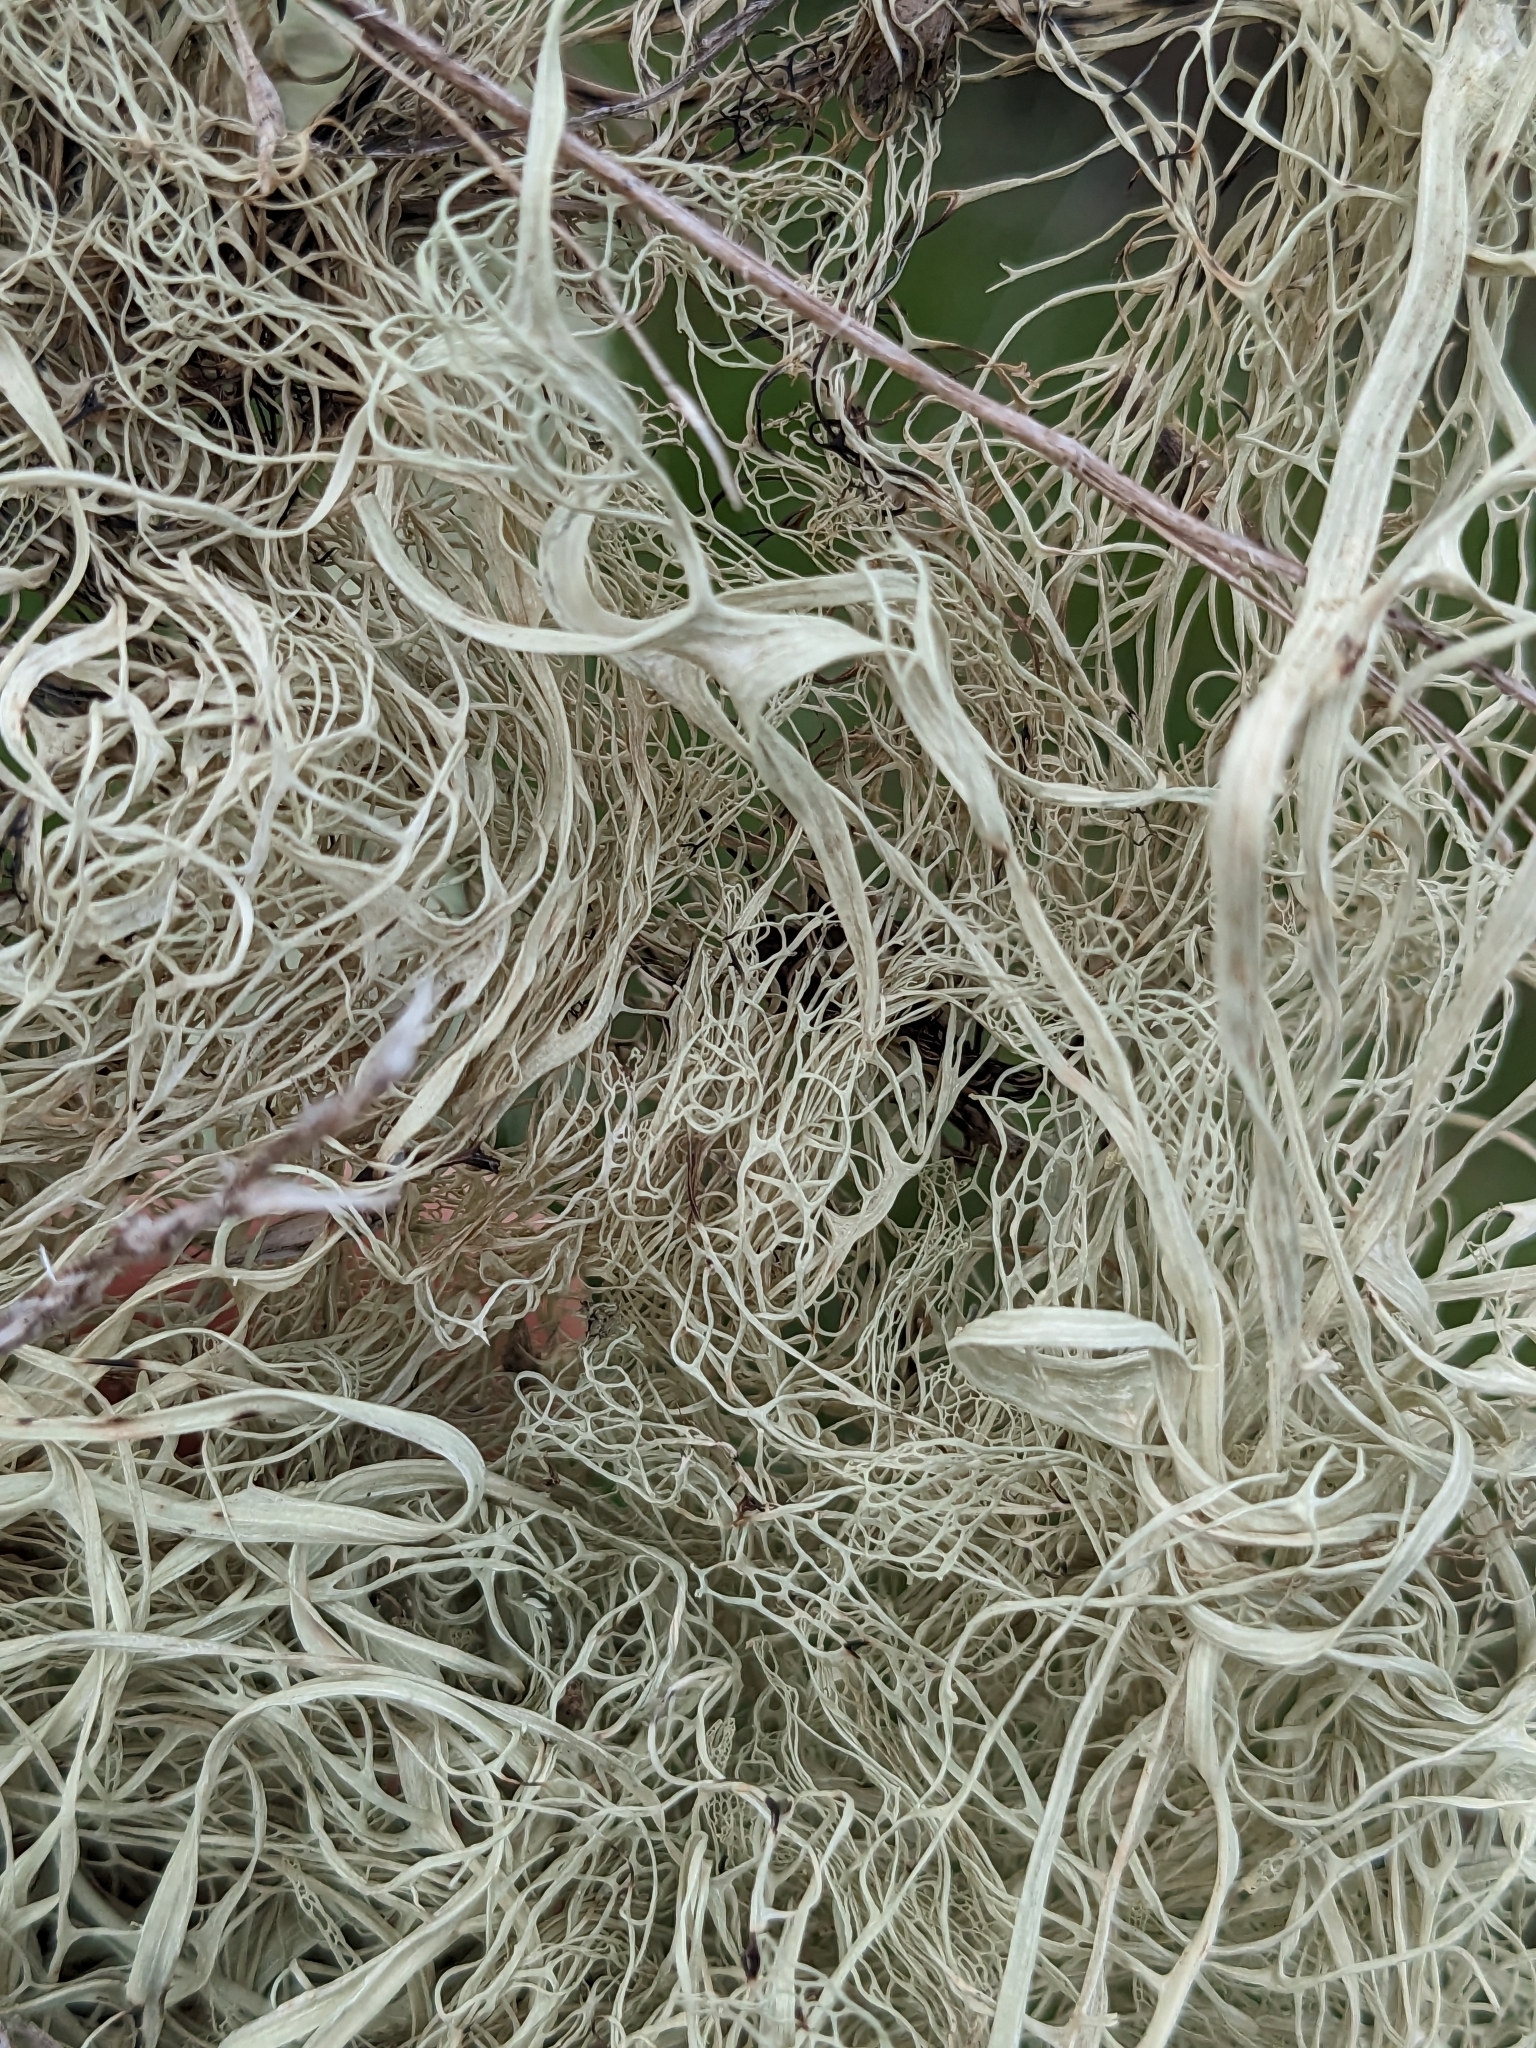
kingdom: Fungi
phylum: Ascomycota
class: Lecanoromycetes
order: Lecanorales
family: Ramalinaceae
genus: Ramalina
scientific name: Ramalina menziesii
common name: Lace lichen
